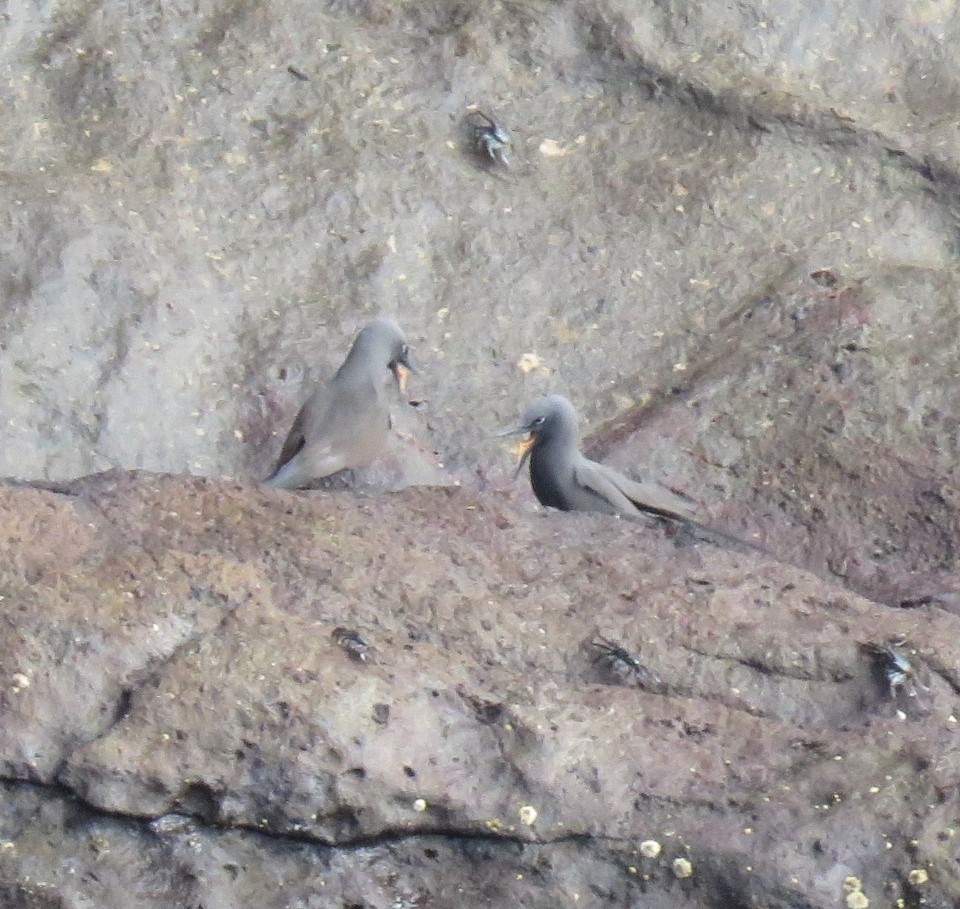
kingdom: Animalia
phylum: Chordata
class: Aves
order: Charadriiformes
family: Laridae
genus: Anous
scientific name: Anous stolidus
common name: Brown noddy
